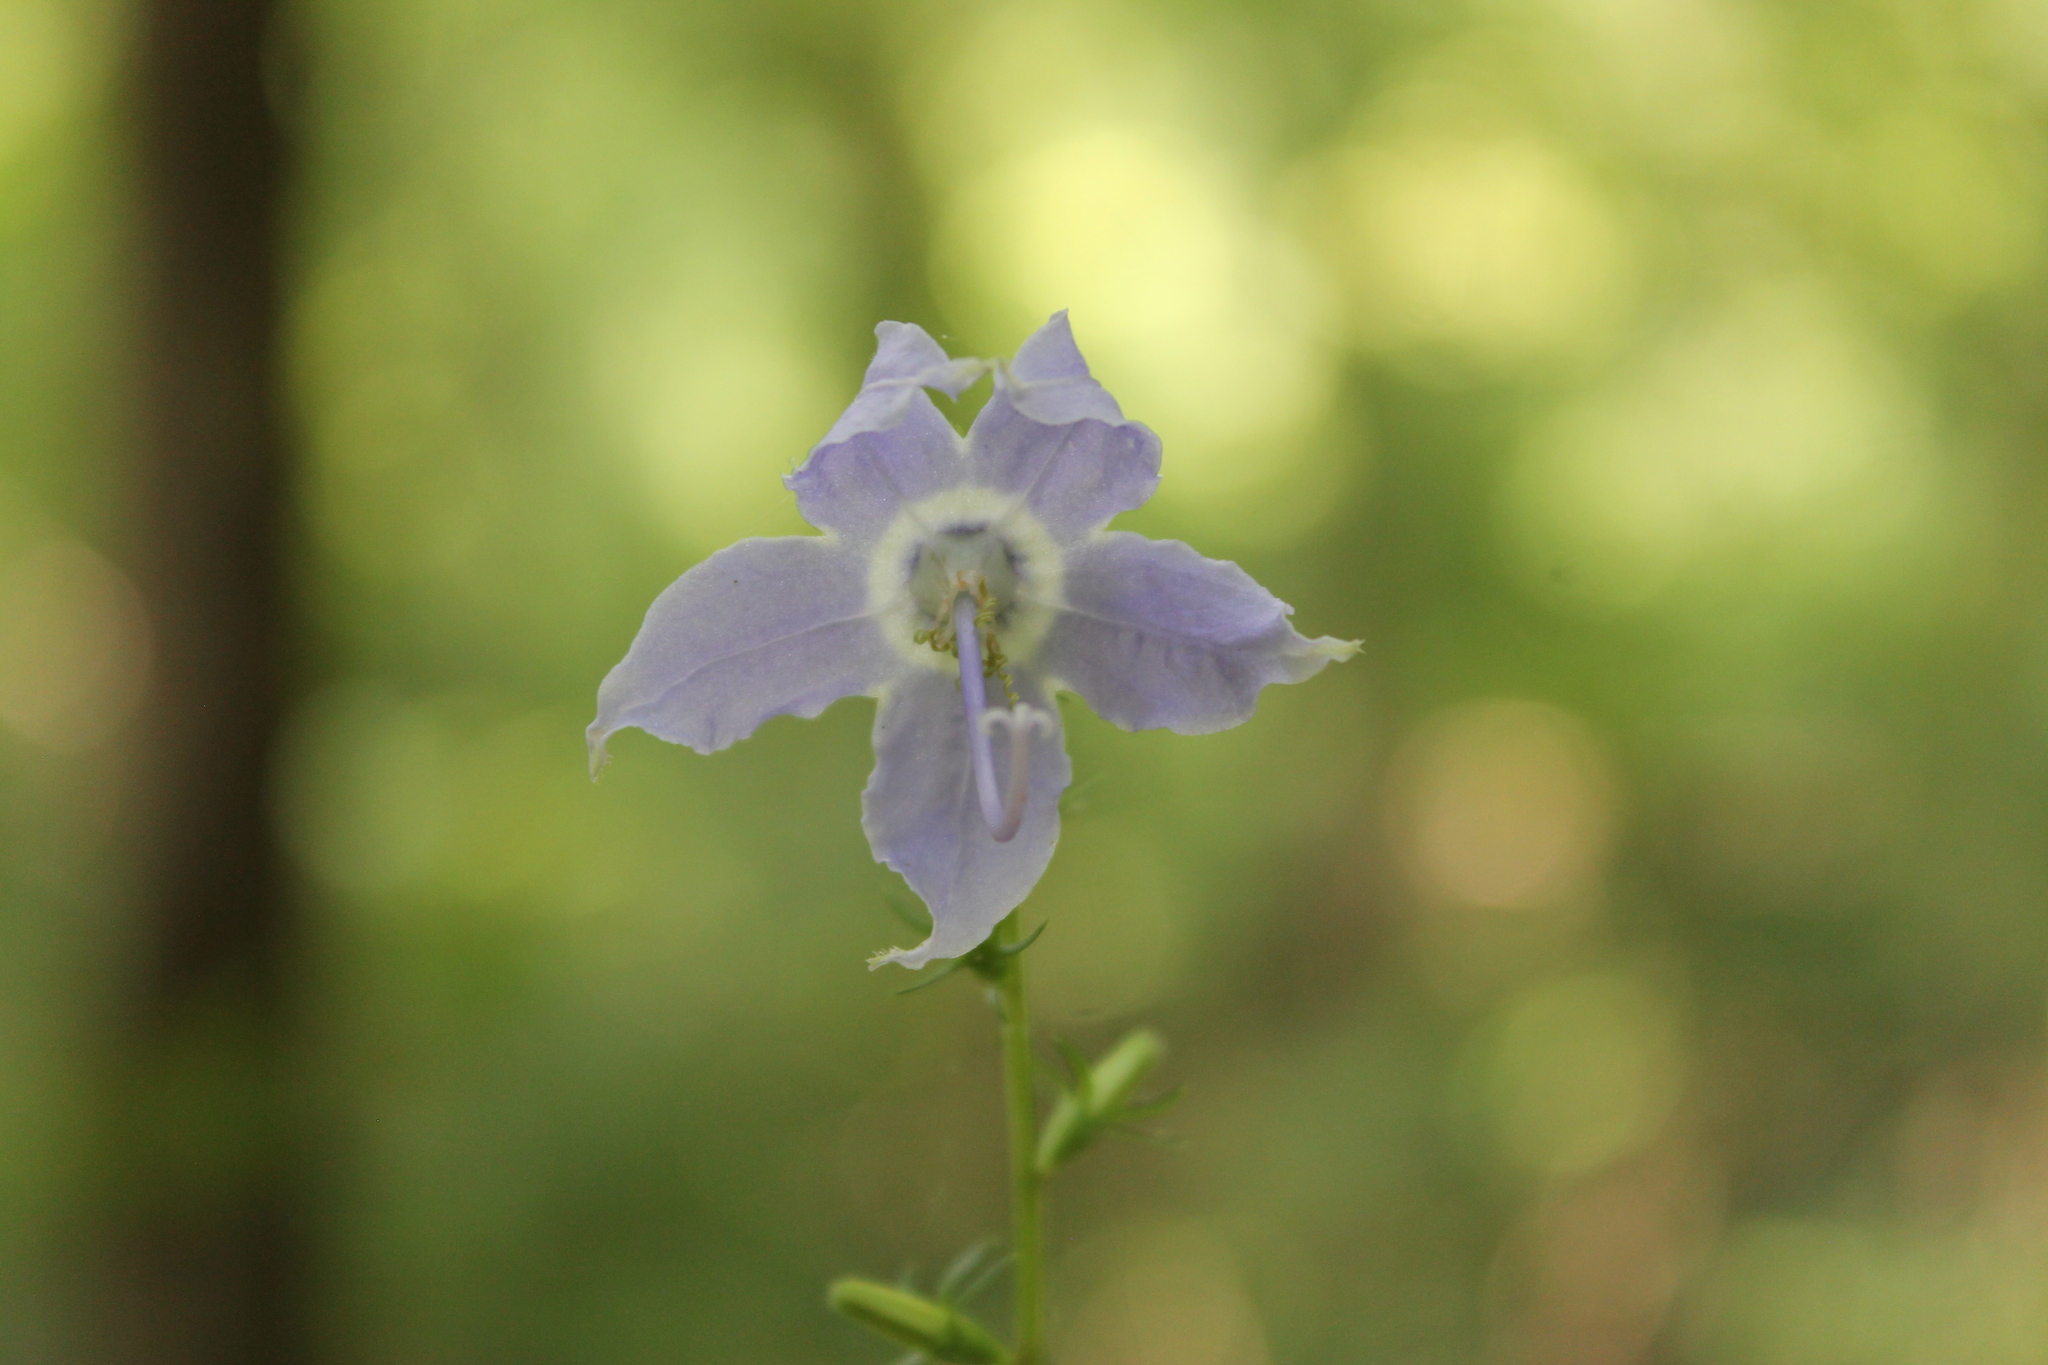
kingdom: Plantae
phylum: Tracheophyta
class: Magnoliopsida
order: Asterales
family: Campanulaceae
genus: Campanulastrum
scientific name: Campanulastrum americanum
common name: American bellflower
